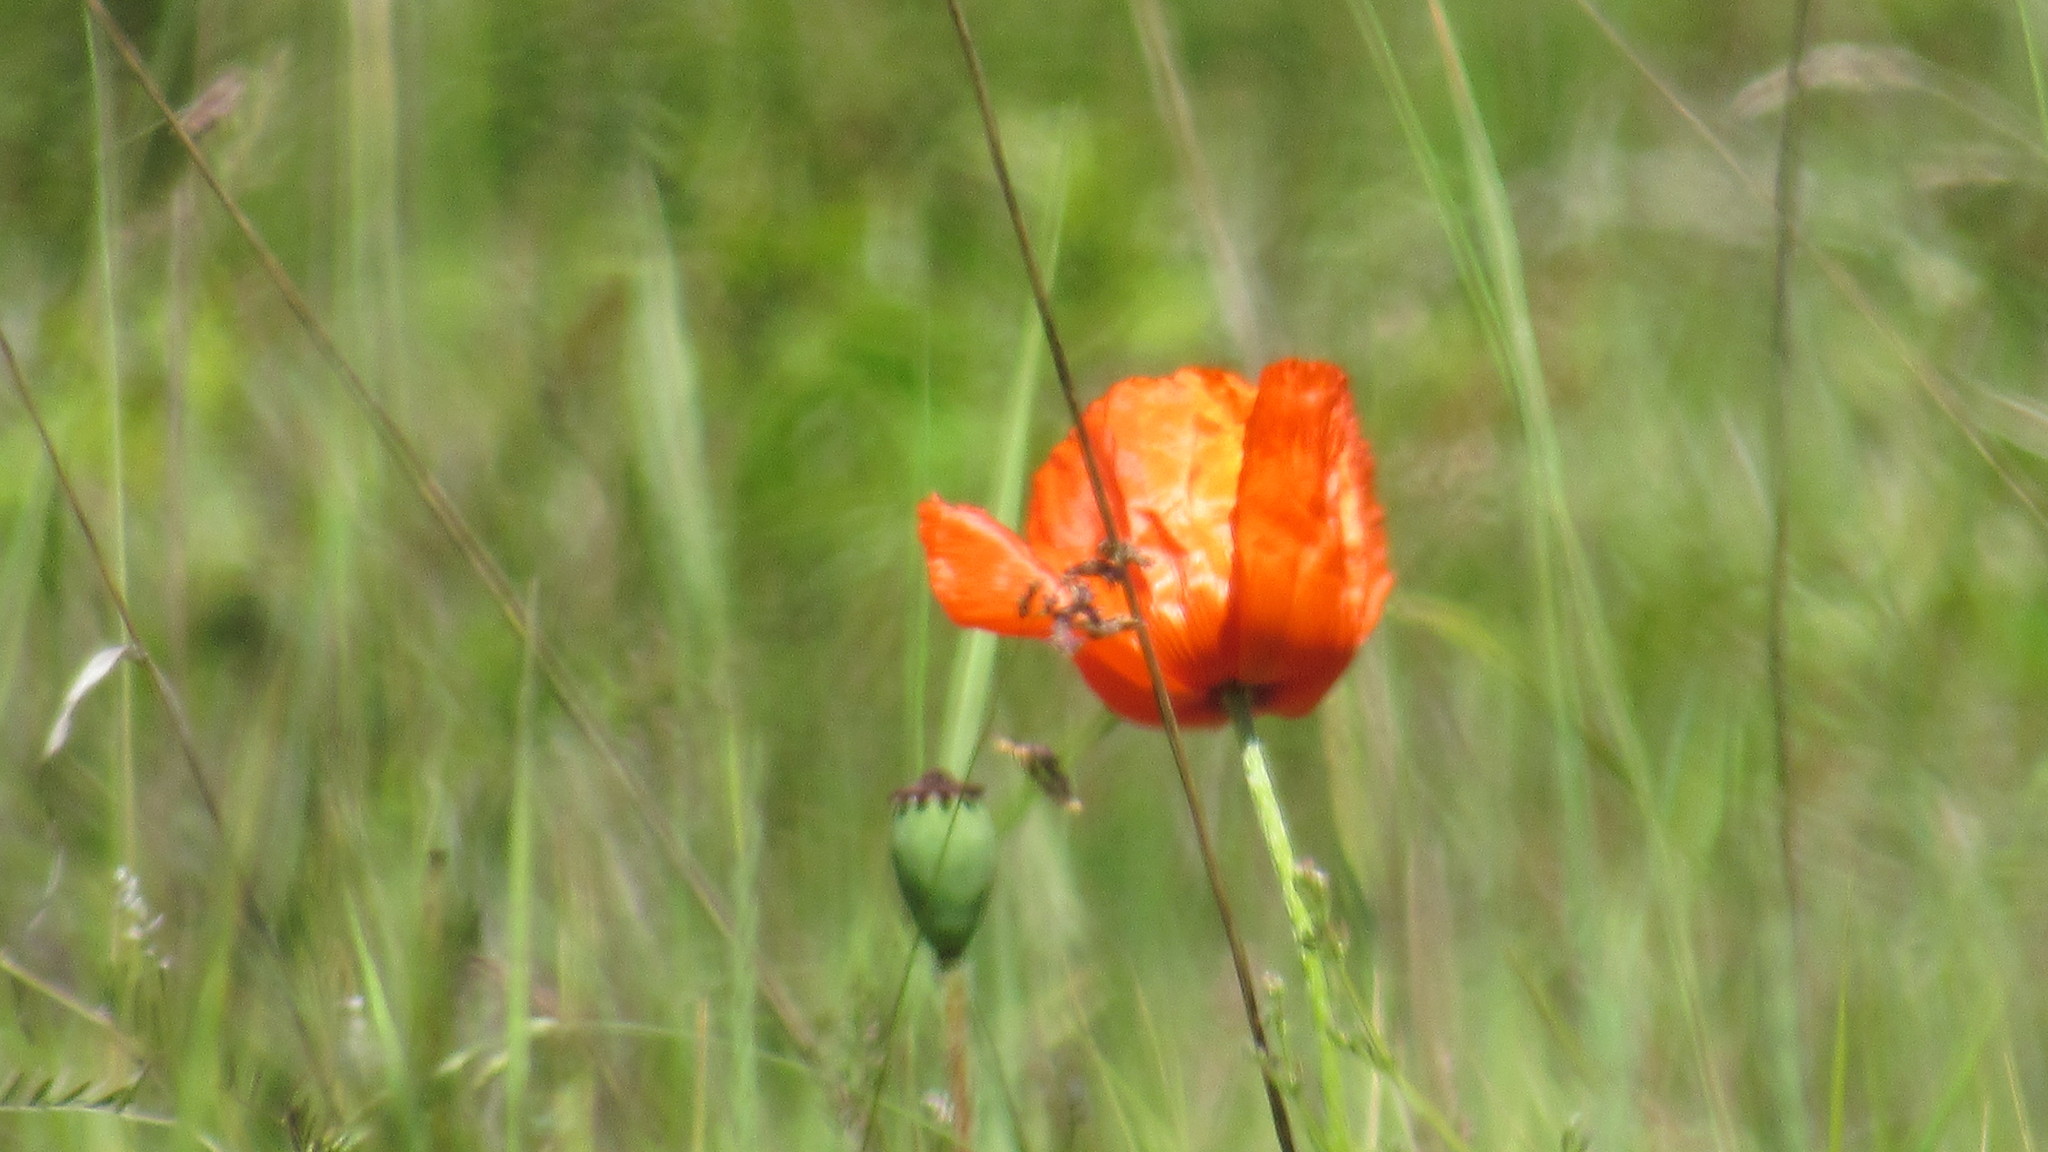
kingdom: Plantae
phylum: Tracheophyta
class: Magnoliopsida
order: Ranunculales
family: Papaveraceae
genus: Papaver
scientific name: Papaver rhoeas
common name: Corn poppy
